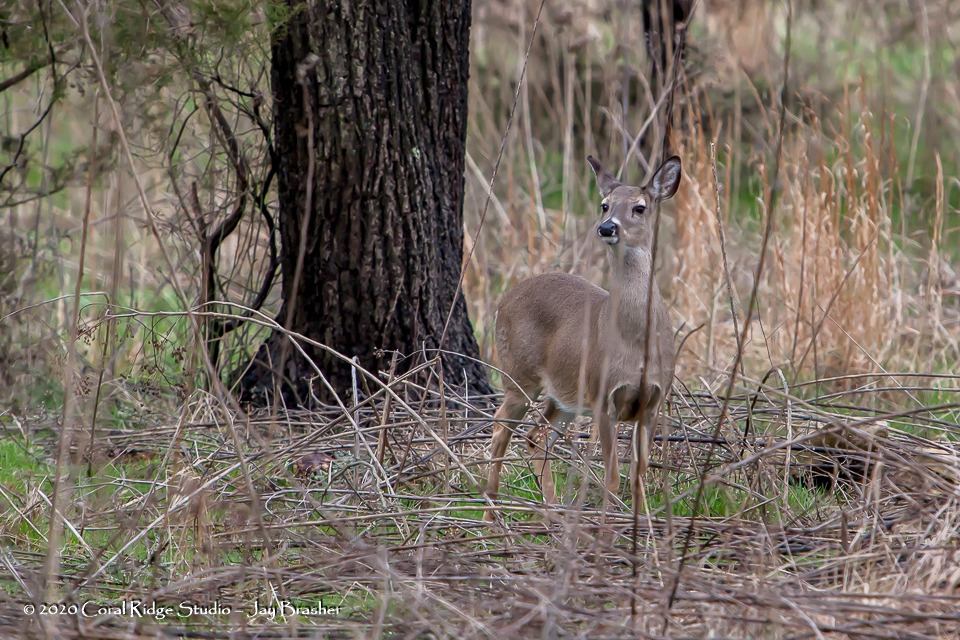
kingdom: Animalia
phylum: Chordata
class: Mammalia
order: Artiodactyla
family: Cervidae
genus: Odocoileus
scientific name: Odocoileus virginianus
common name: White-tailed deer
